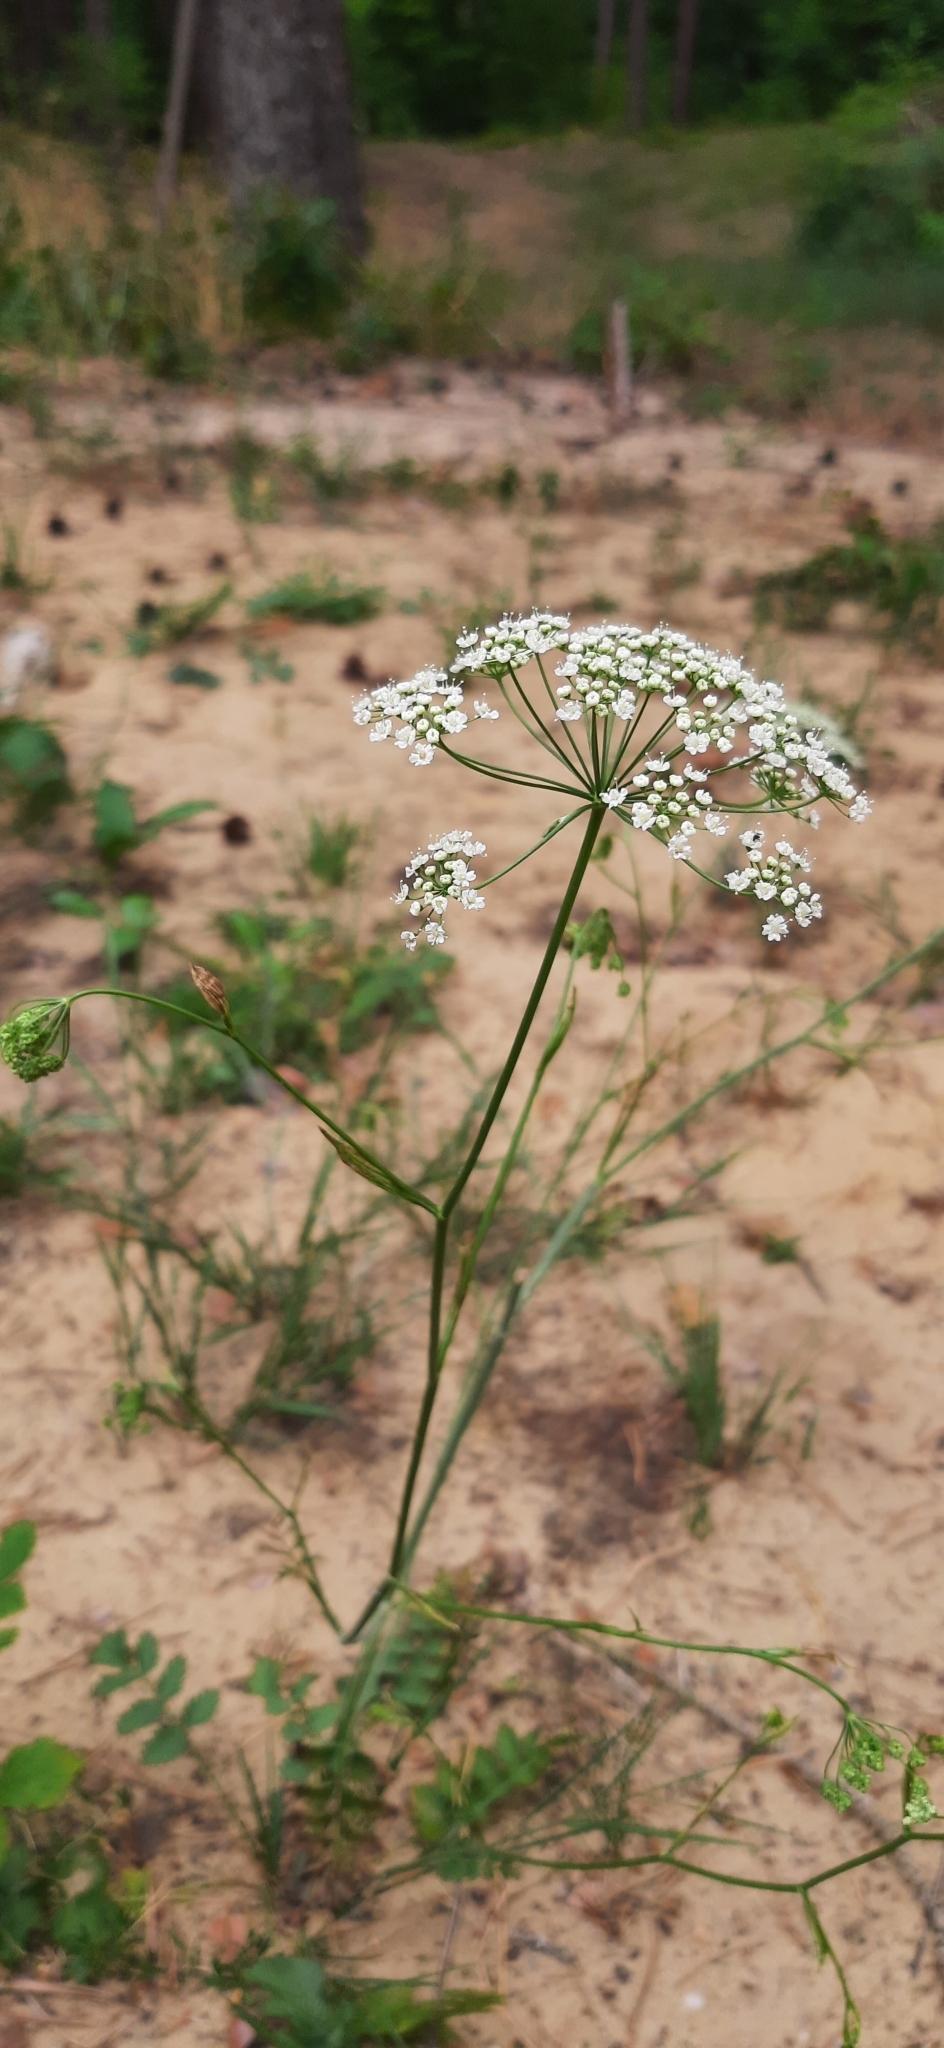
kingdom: Plantae
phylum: Tracheophyta
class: Magnoliopsida
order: Apiales
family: Apiaceae
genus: Pimpinella
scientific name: Pimpinella saxifraga
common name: Burnet-saxifrage
